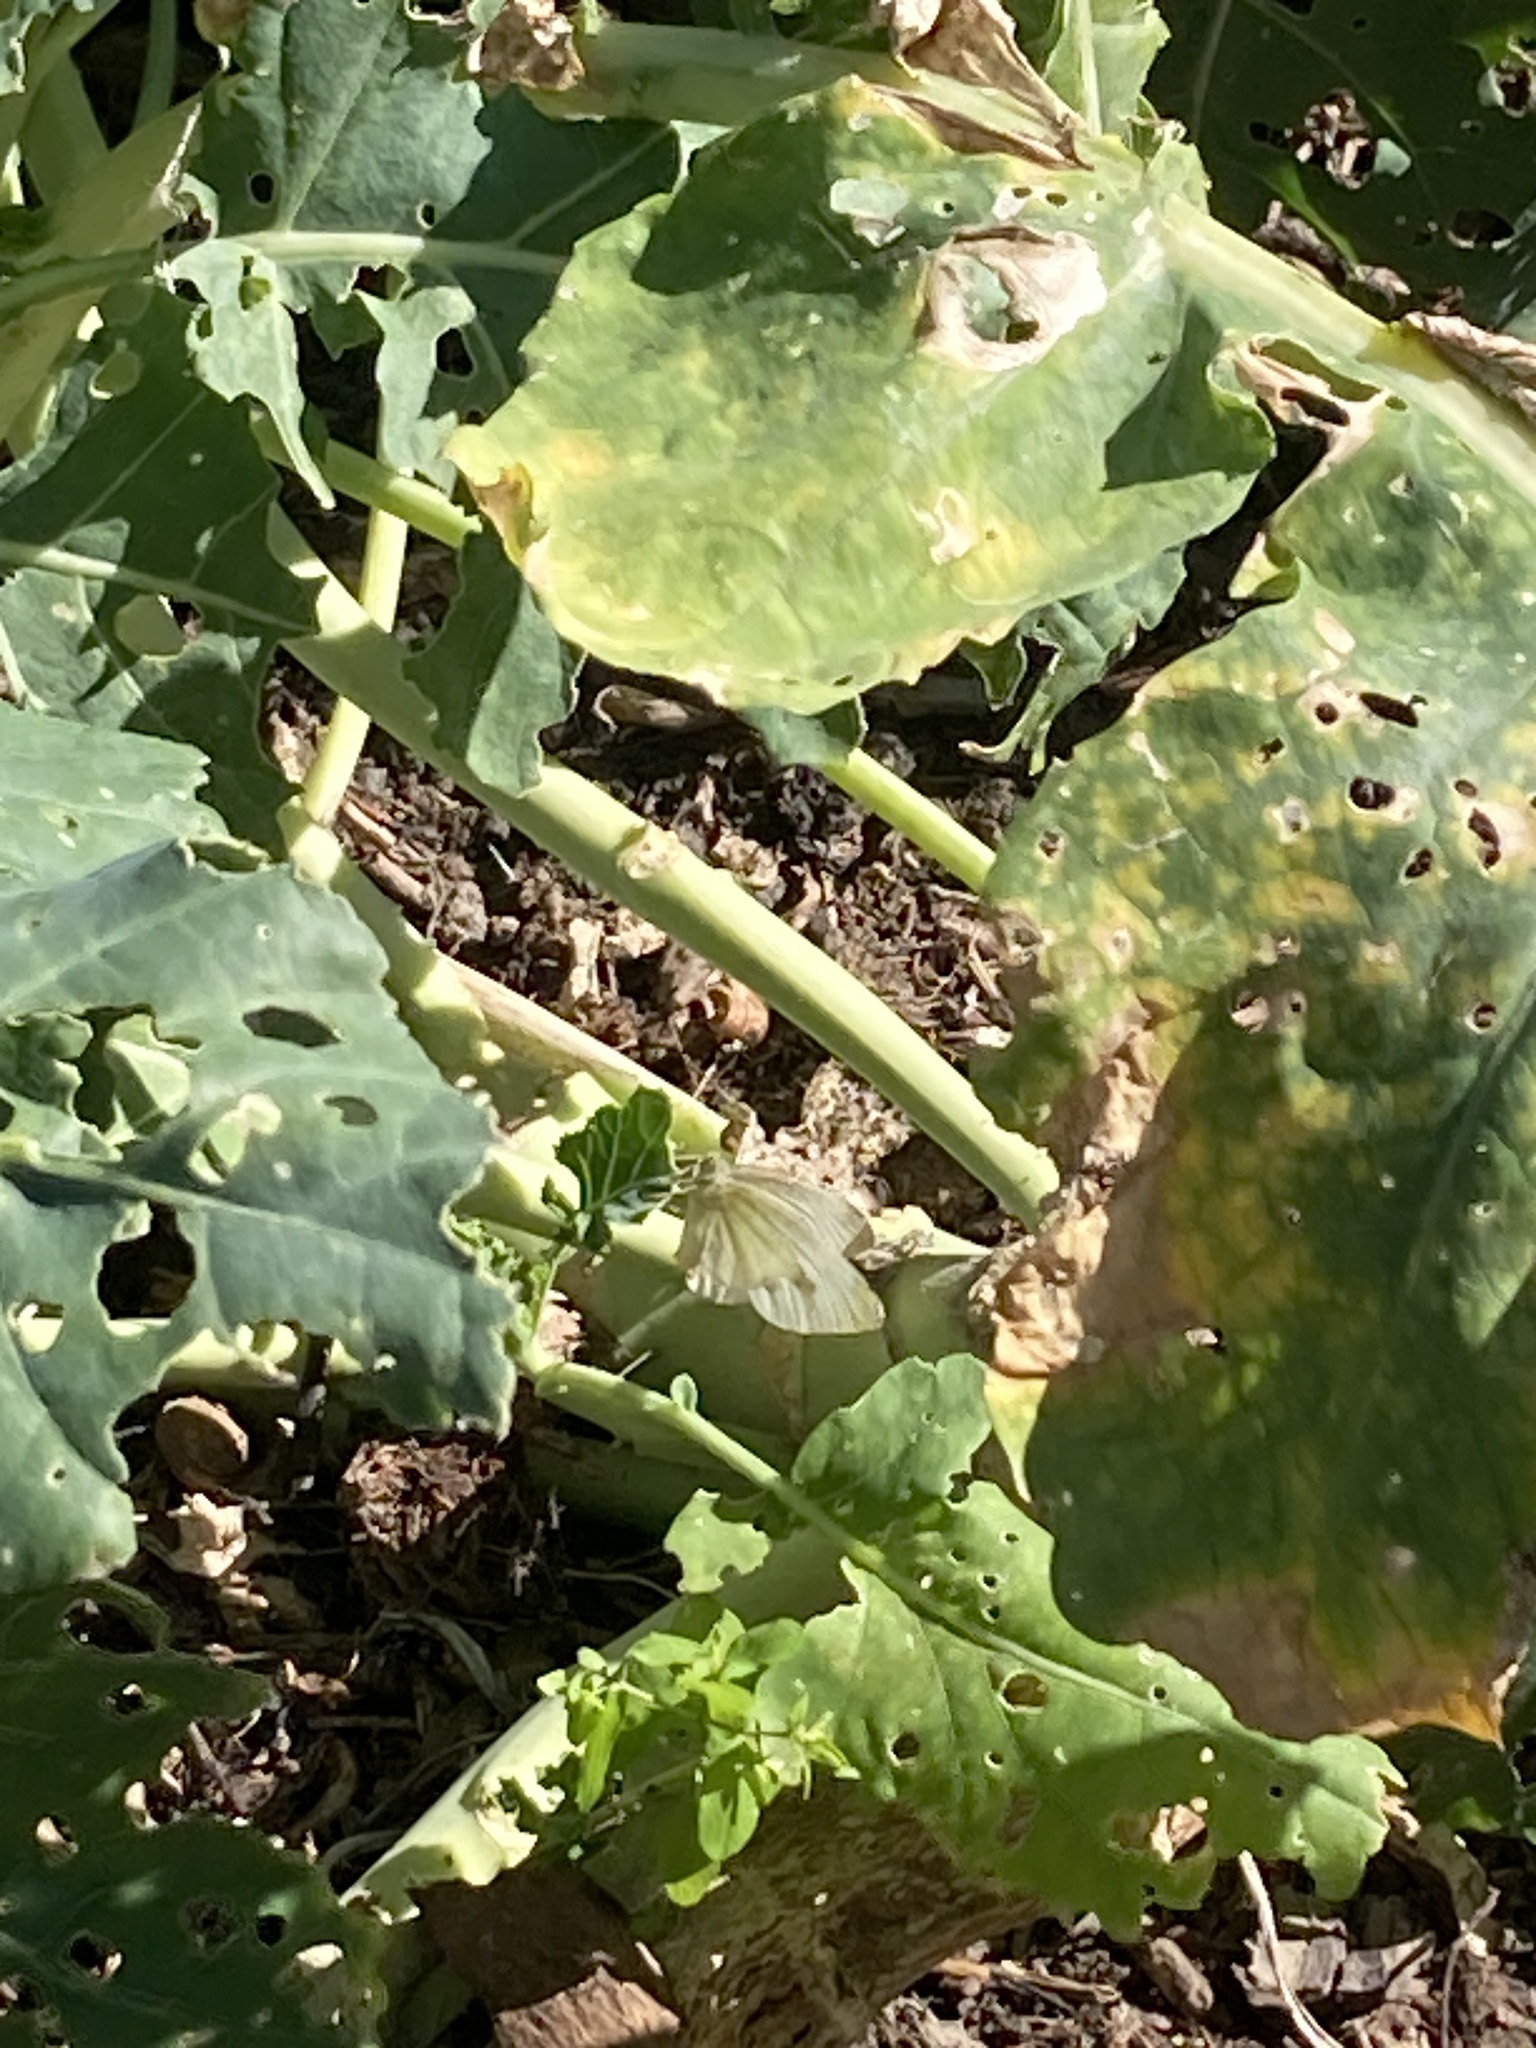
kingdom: Animalia
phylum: Arthropoda
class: Insecta
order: Lepidoptera
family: Pieridae
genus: Pieris
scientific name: Pieris rapae
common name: Small white
